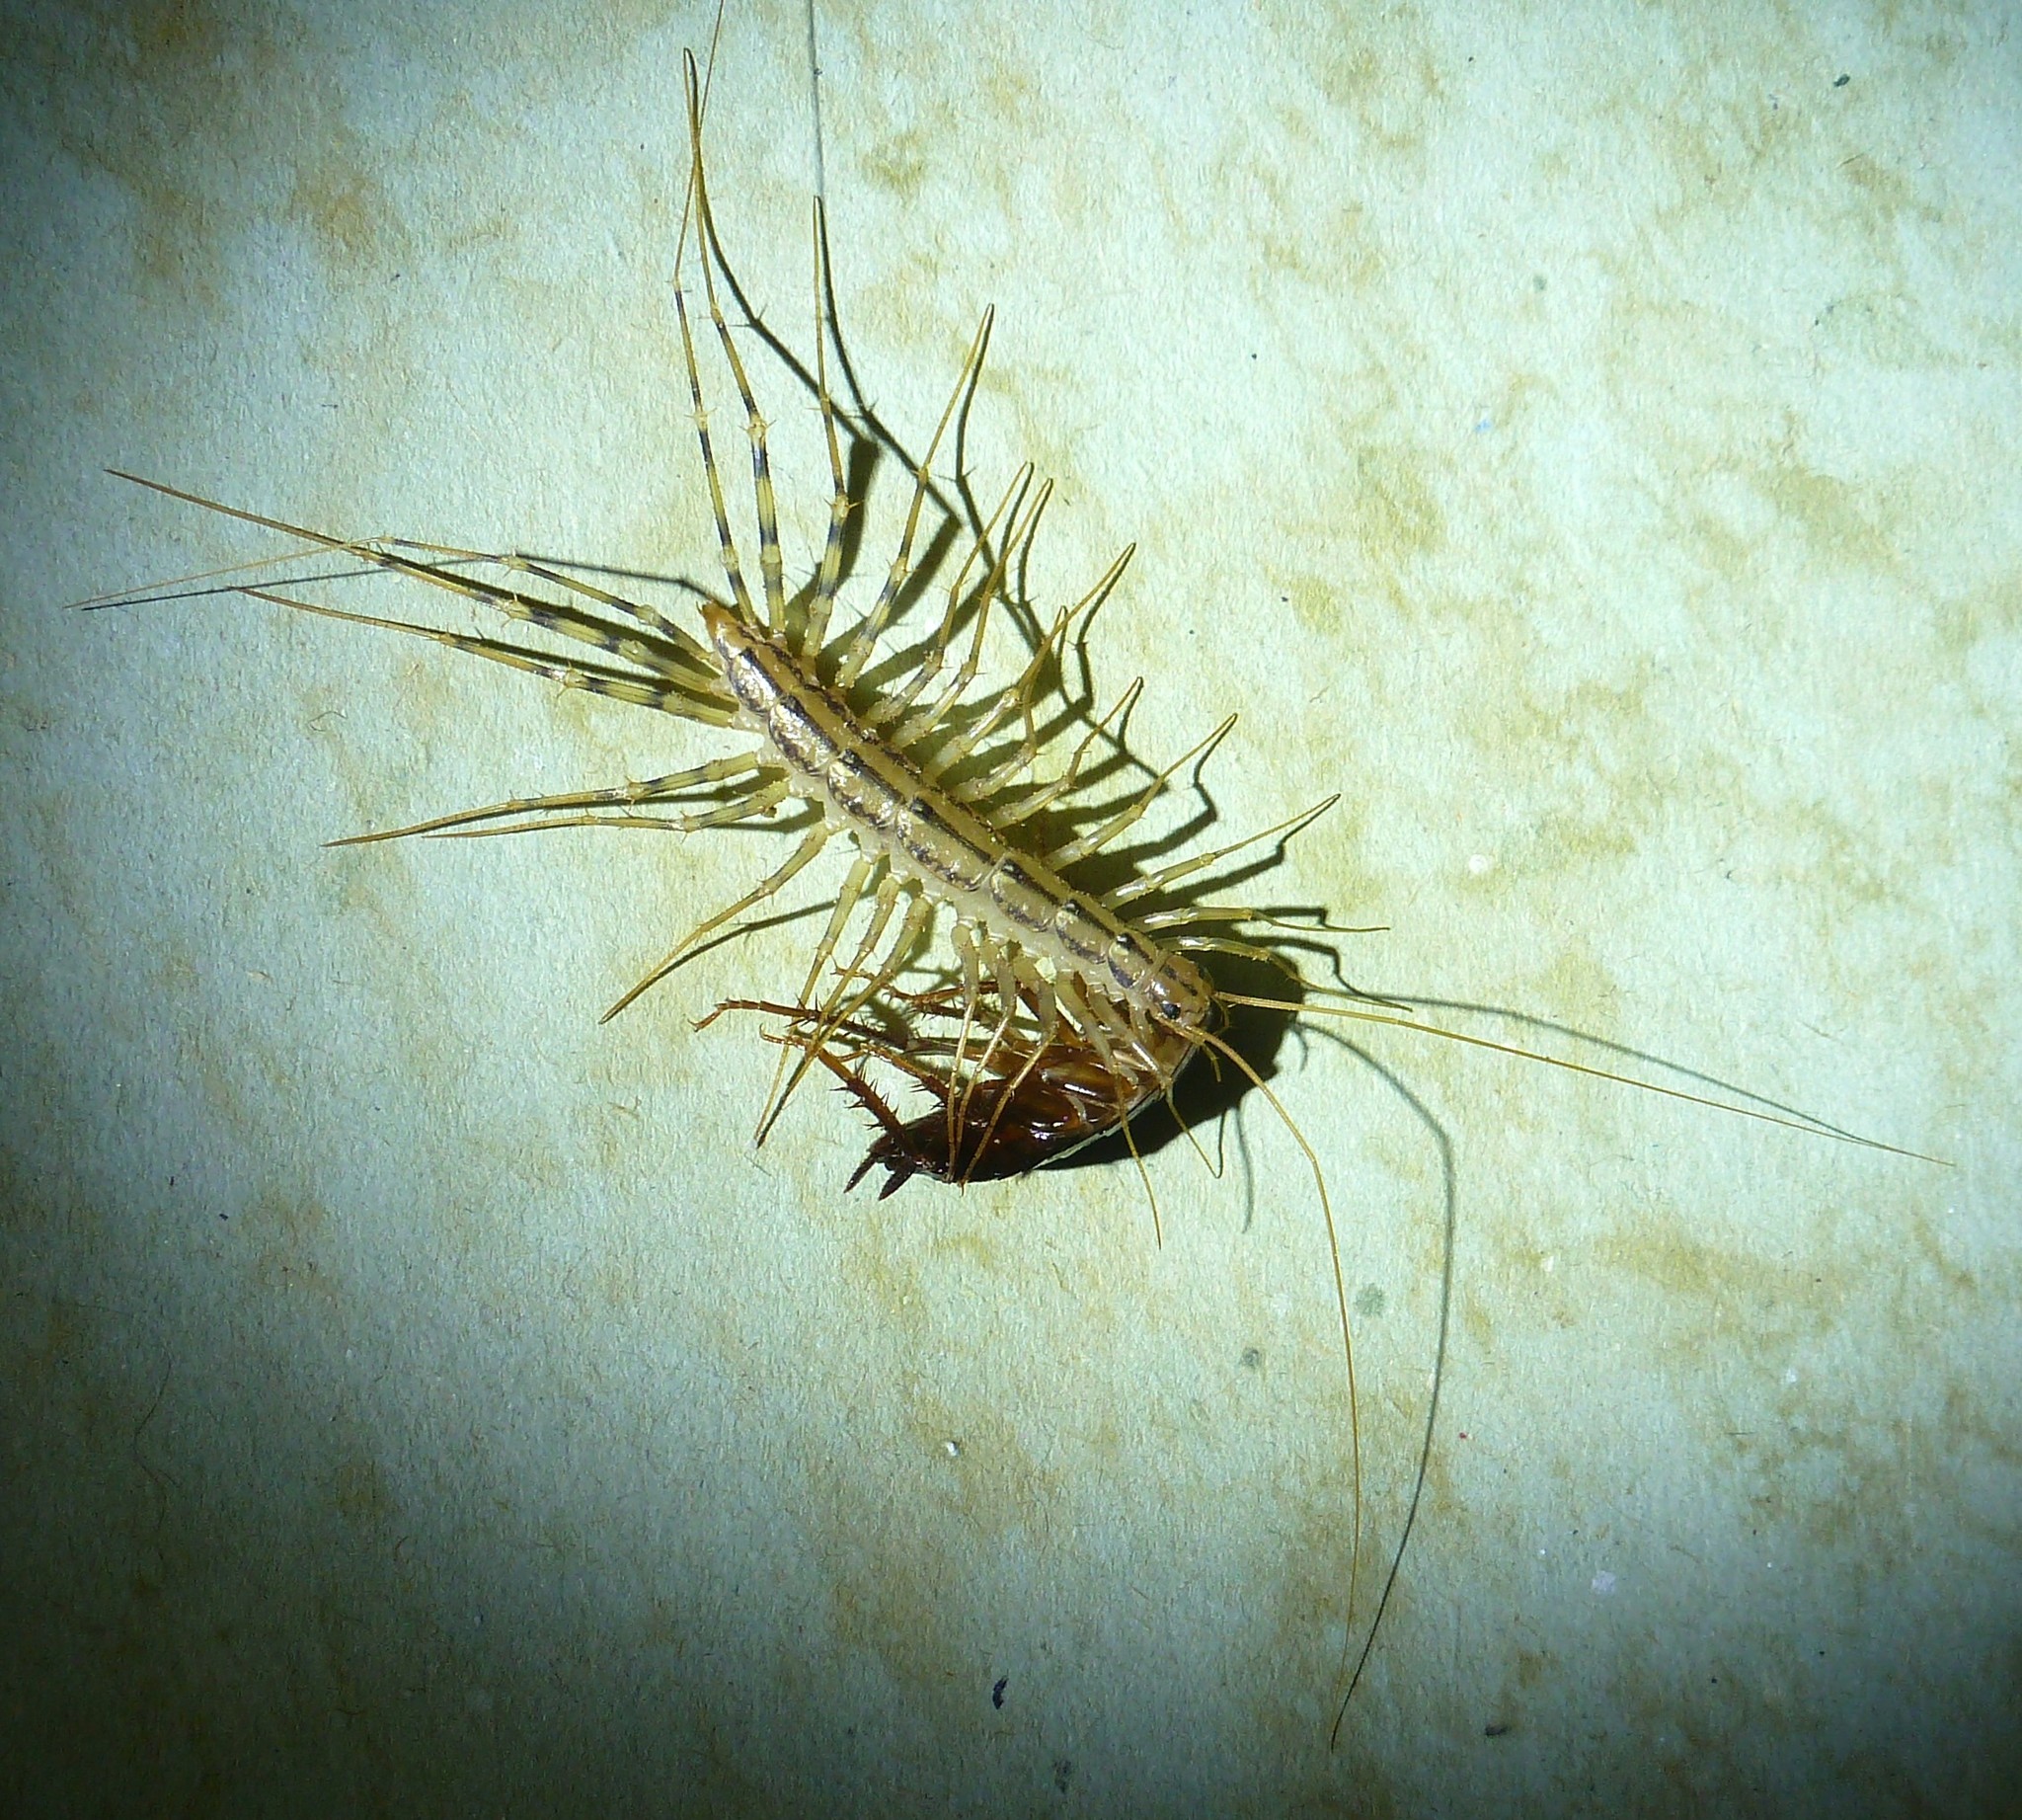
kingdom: Animalia
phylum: Arthropoda
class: Chilopoda
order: Scutigeromorpha
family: Scutigeridae
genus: Scutigera
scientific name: Scutigera coleoptrata
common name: House centipede
